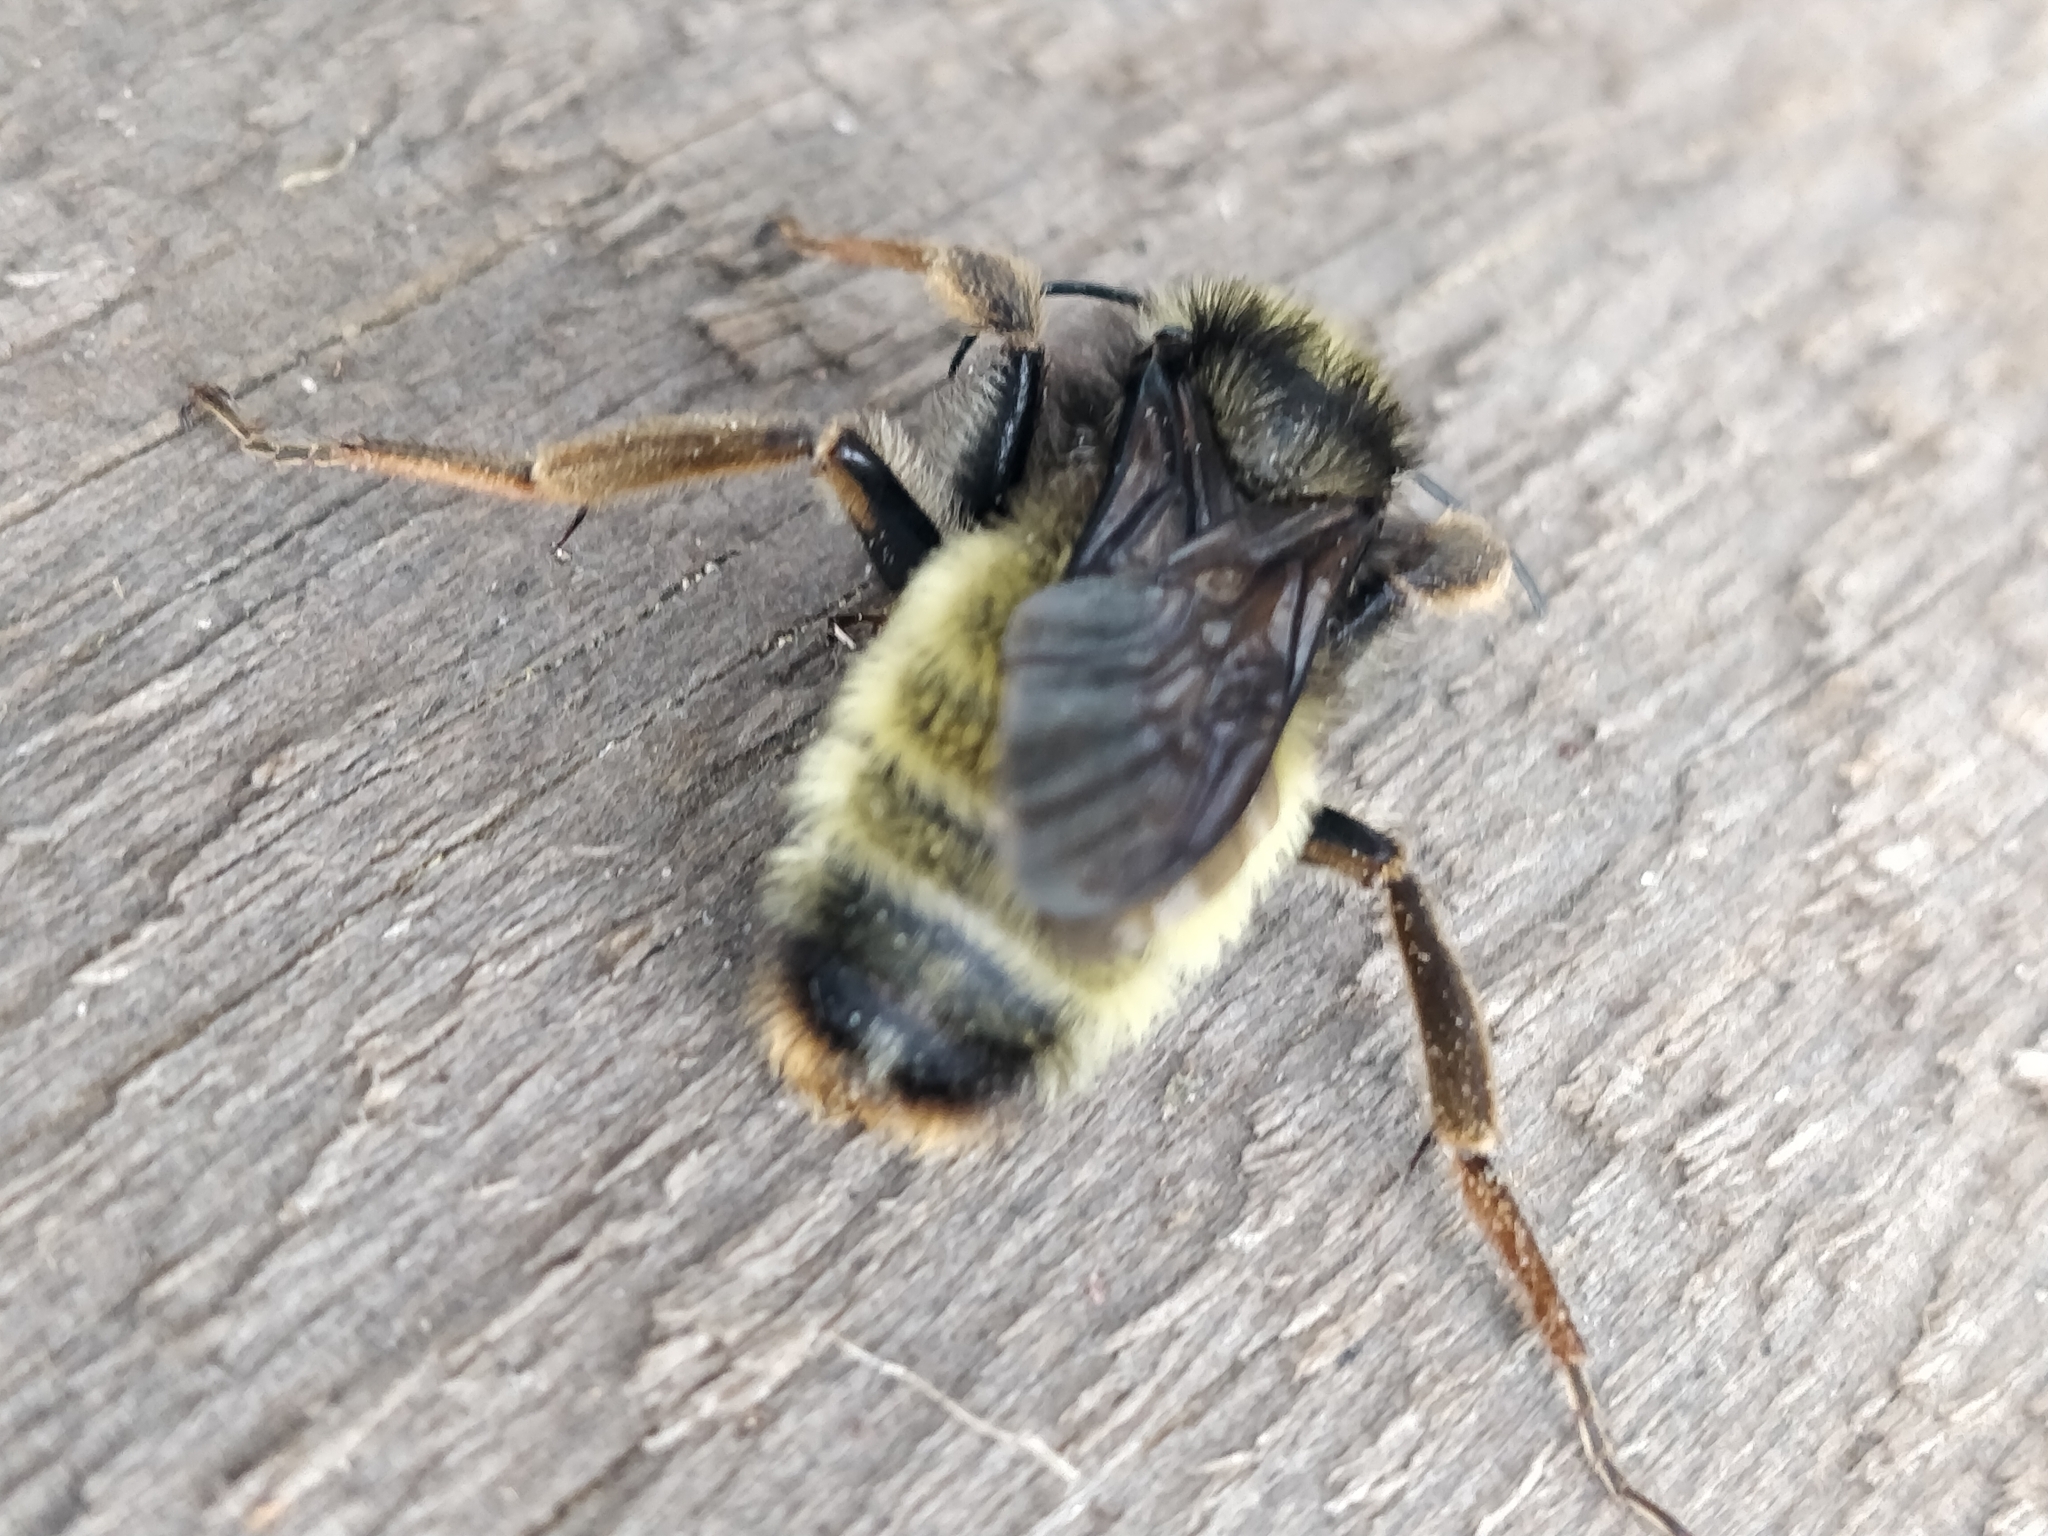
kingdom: Animalia
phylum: Arthropoda
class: Insecta
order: Hymenoptera
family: Apidae
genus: Bombus
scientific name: Bombus pensylvanicus
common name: Bumble bee
